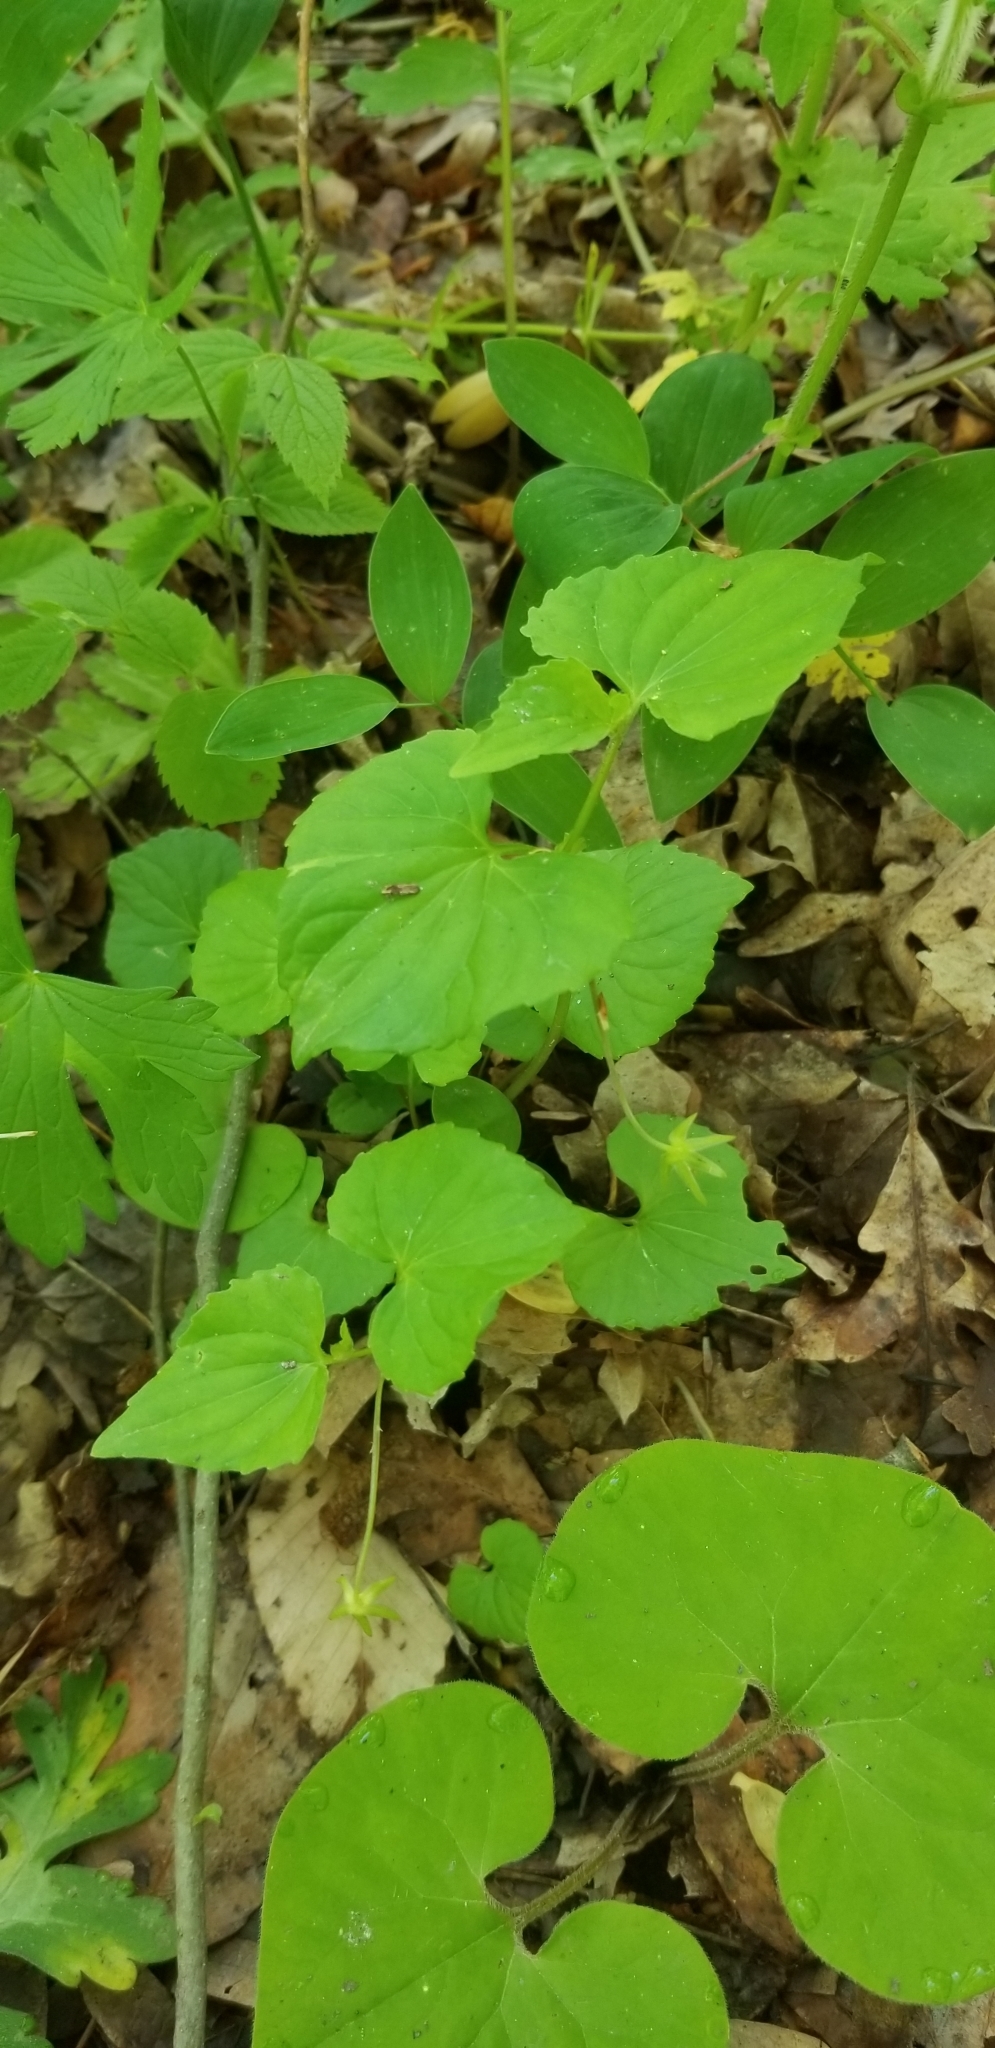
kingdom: Plantae
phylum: Tracheophyta
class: Magnoliopsida
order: Malpighiales
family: Violaceae
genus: Viola
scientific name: Viola eriocarpa
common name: Smooth yellow violet
